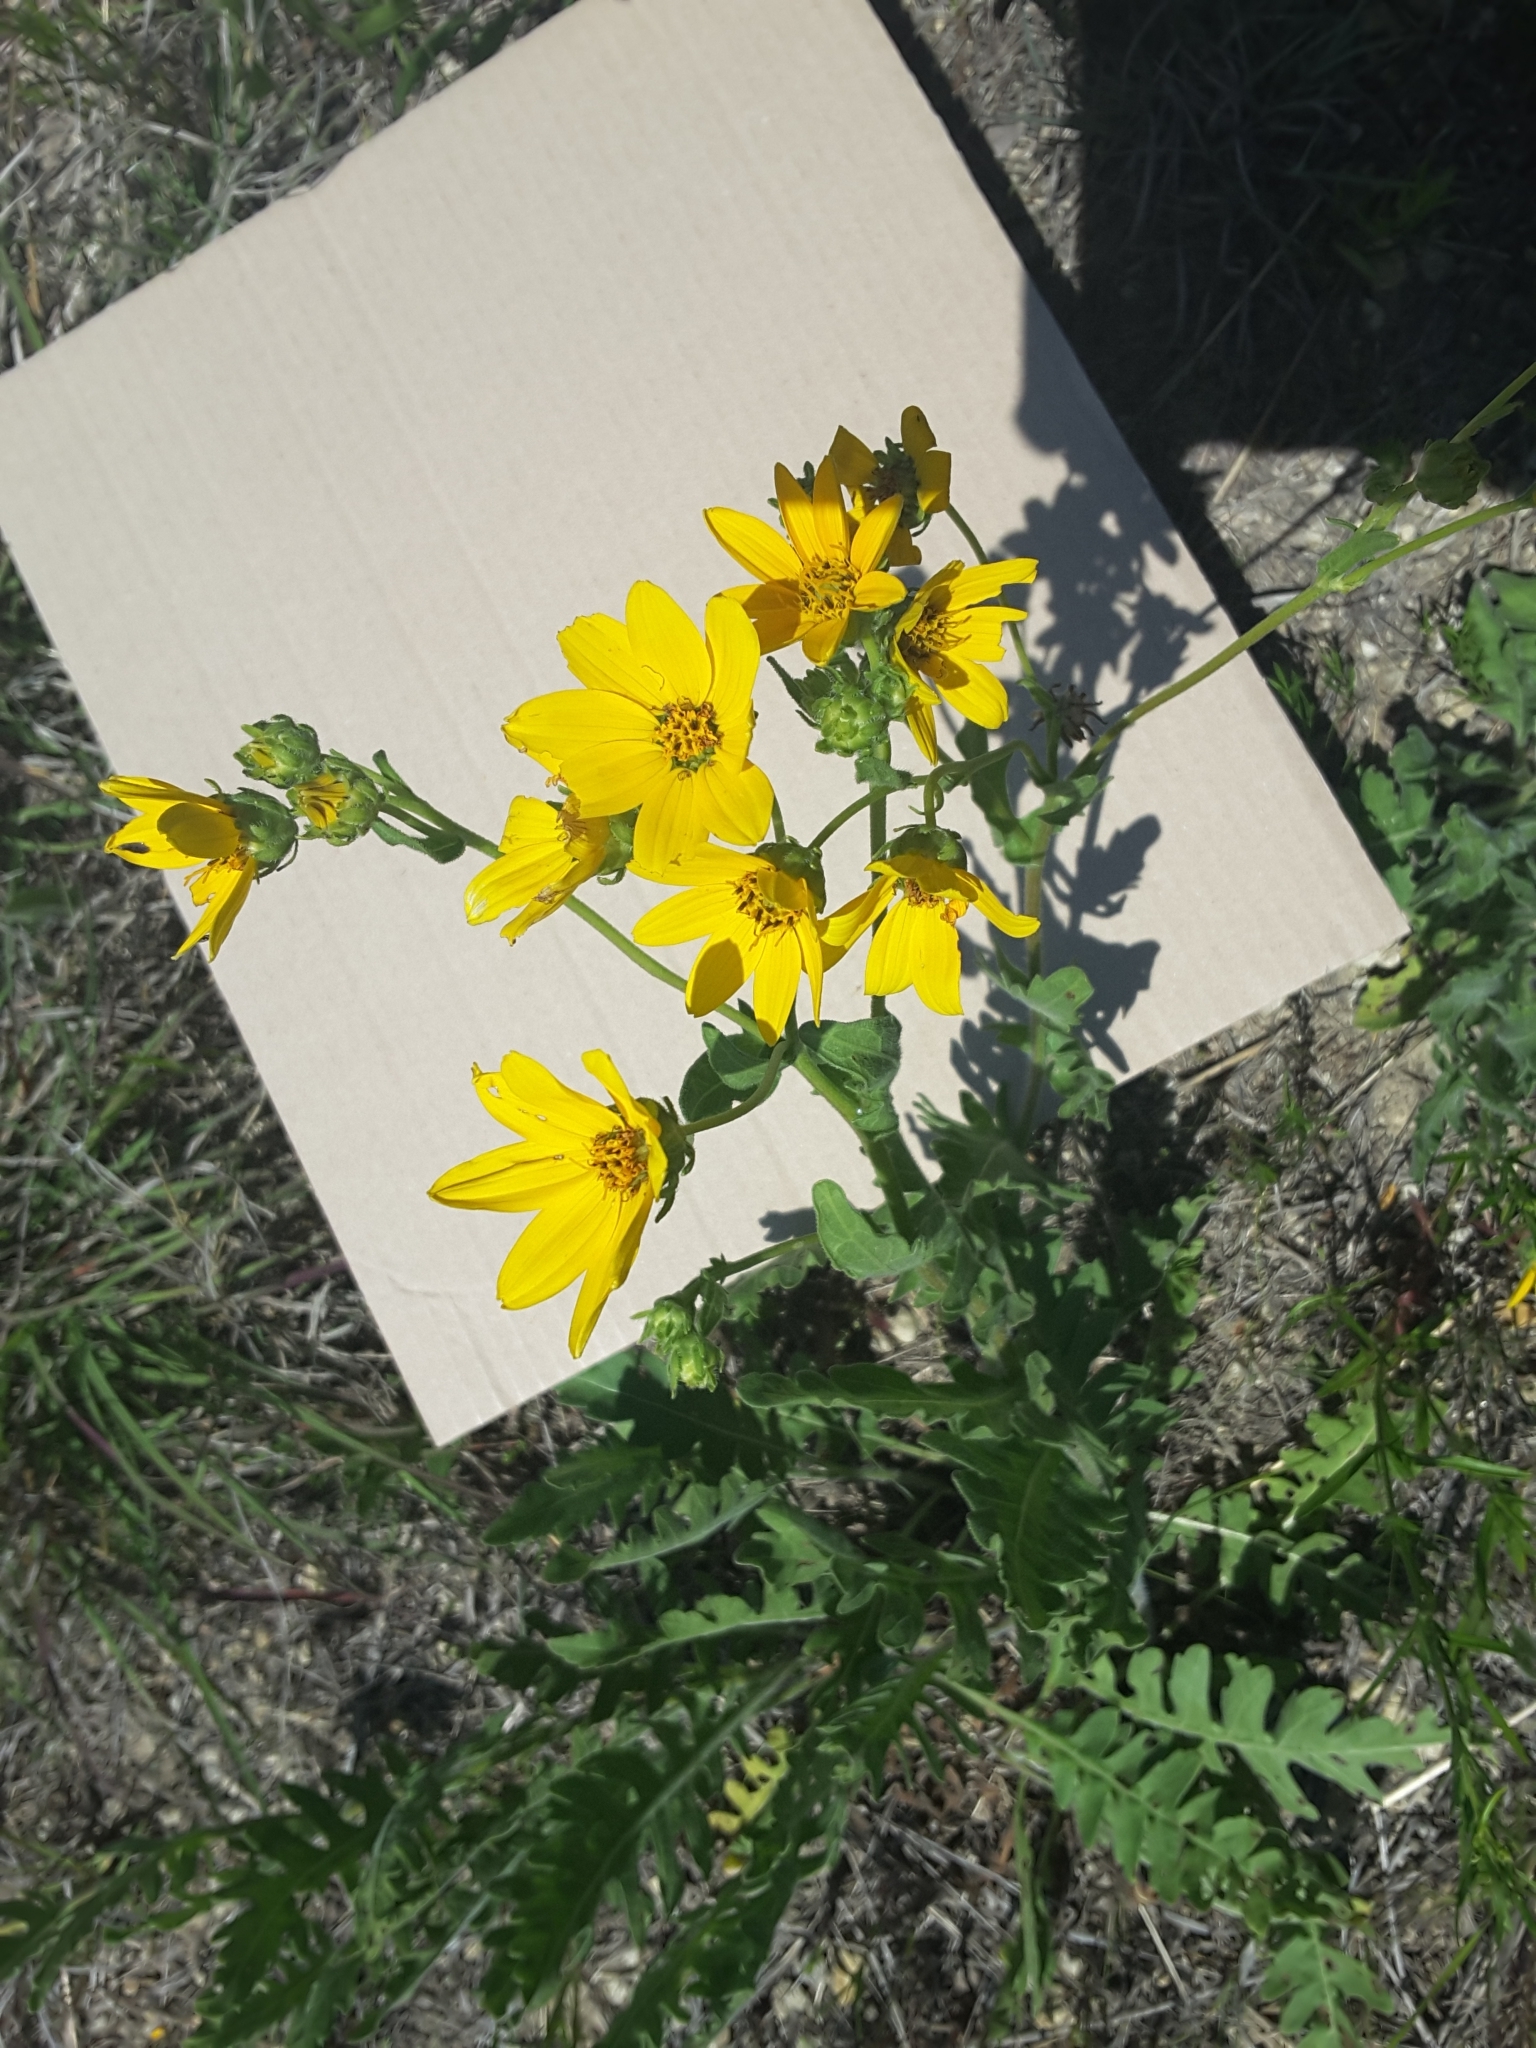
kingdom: Plantae
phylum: Tracheophyta
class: Magnoliopsida
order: Asterales
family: Asteraceae
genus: Engelmannia
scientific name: Engelmannia peristenia
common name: Engelmann's daisy
